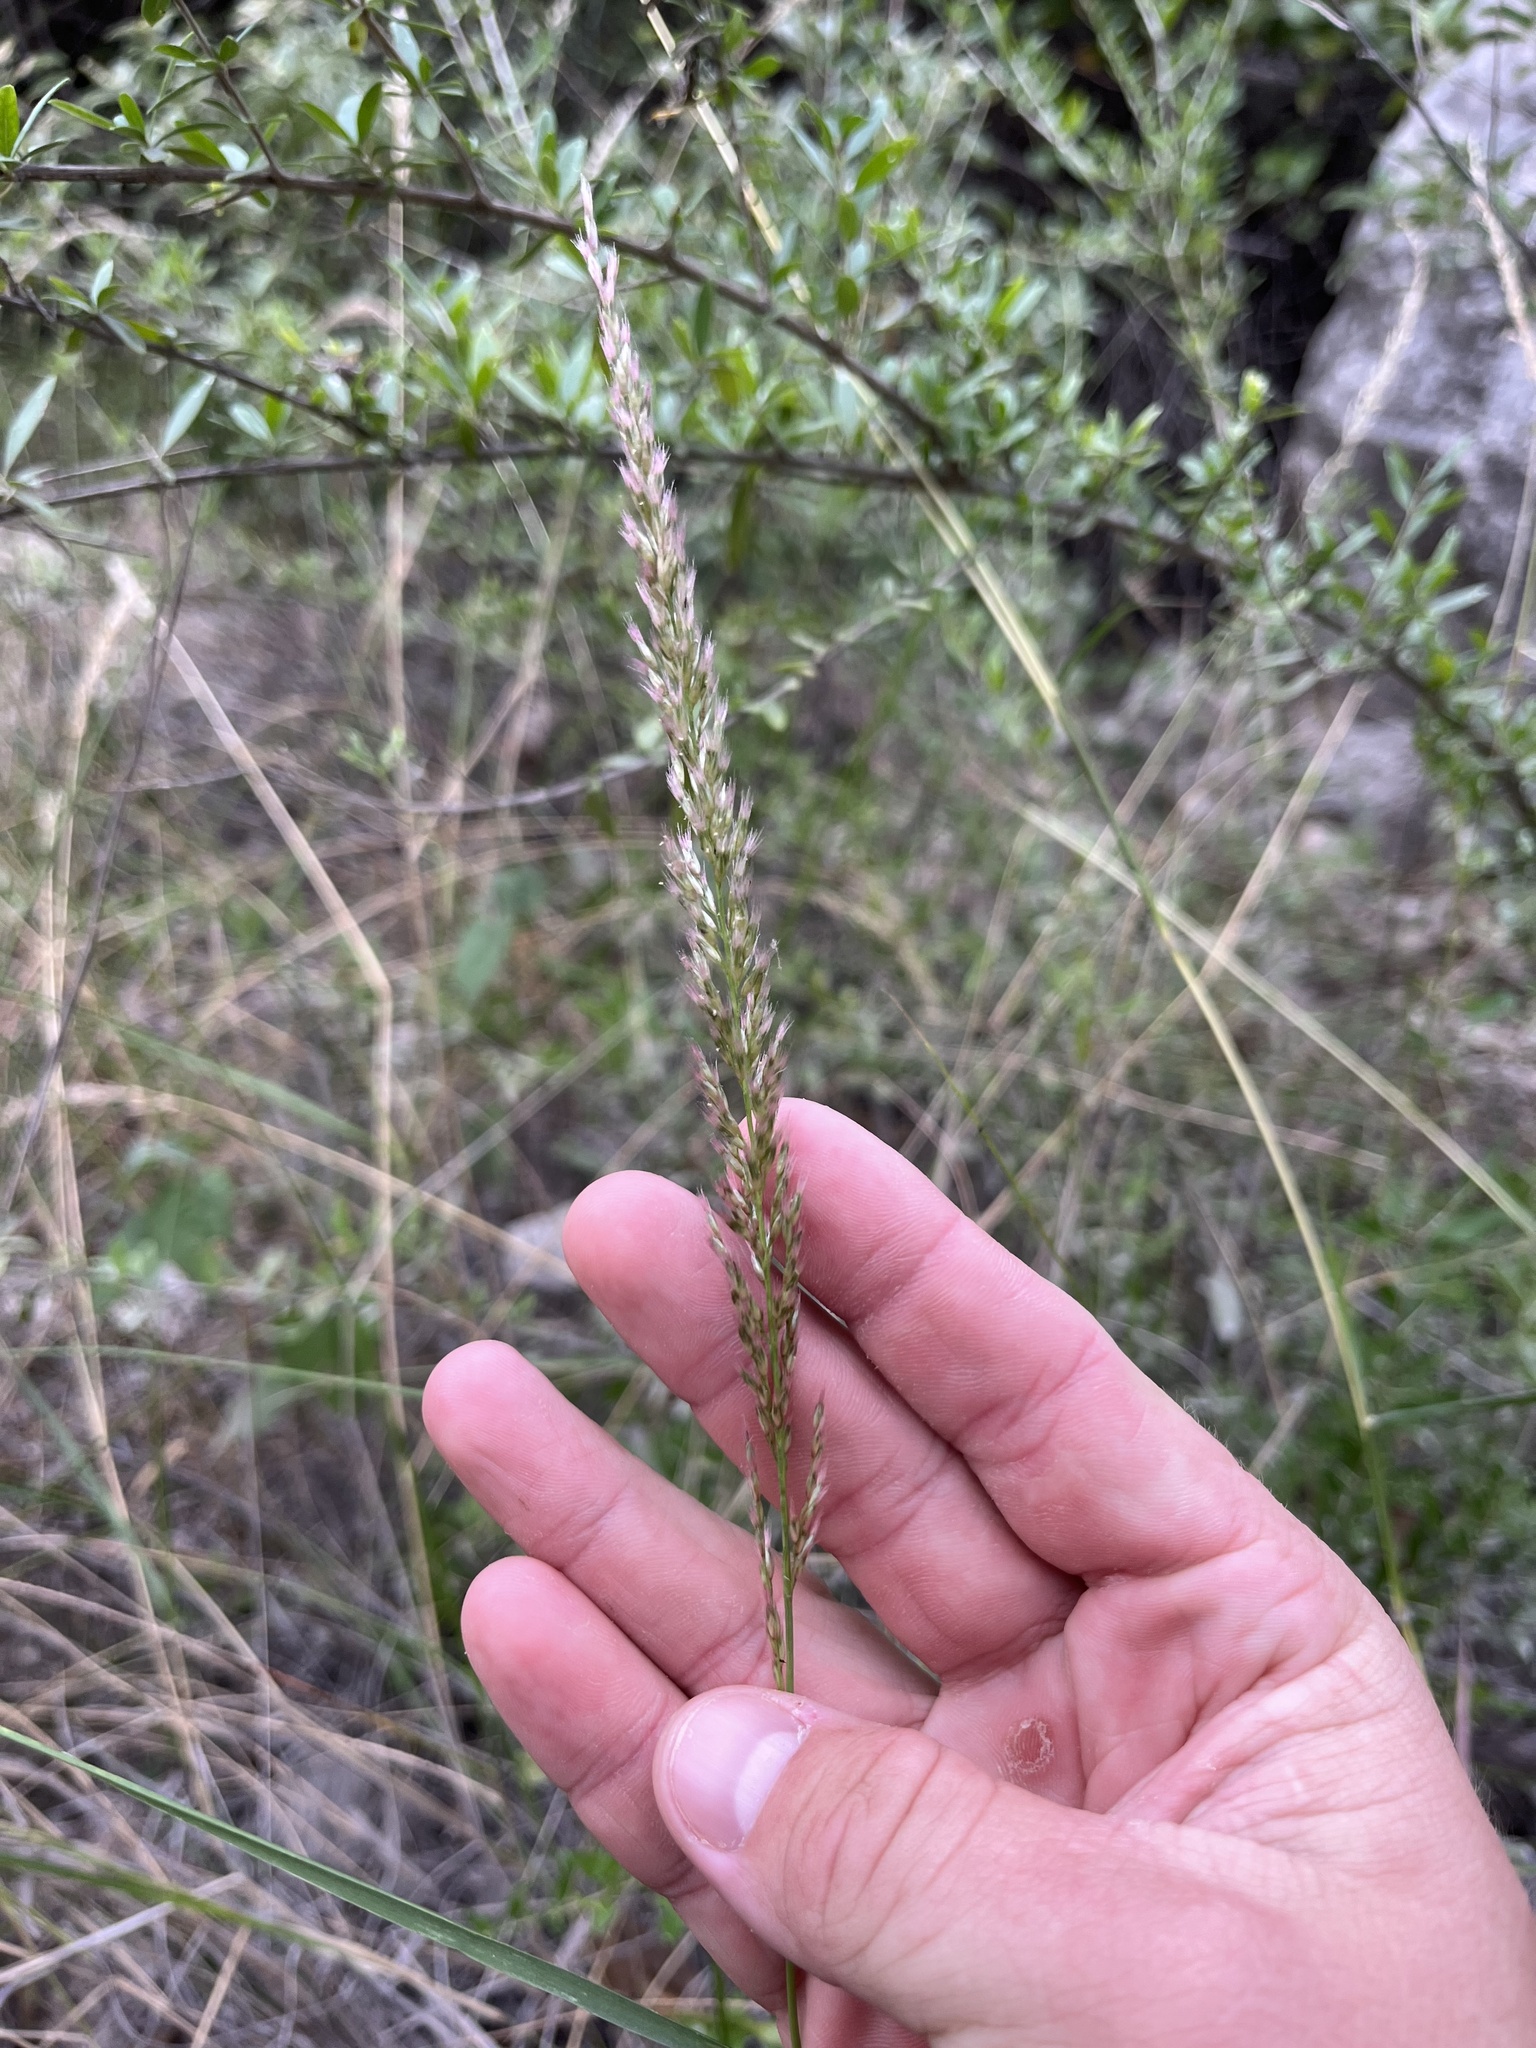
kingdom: Plantae
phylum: Tracheophyta
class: Liliopsida
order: Poales
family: Poaceae
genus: Pappophorum
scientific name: Pappophorum bicolor
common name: Pink pappus grass
